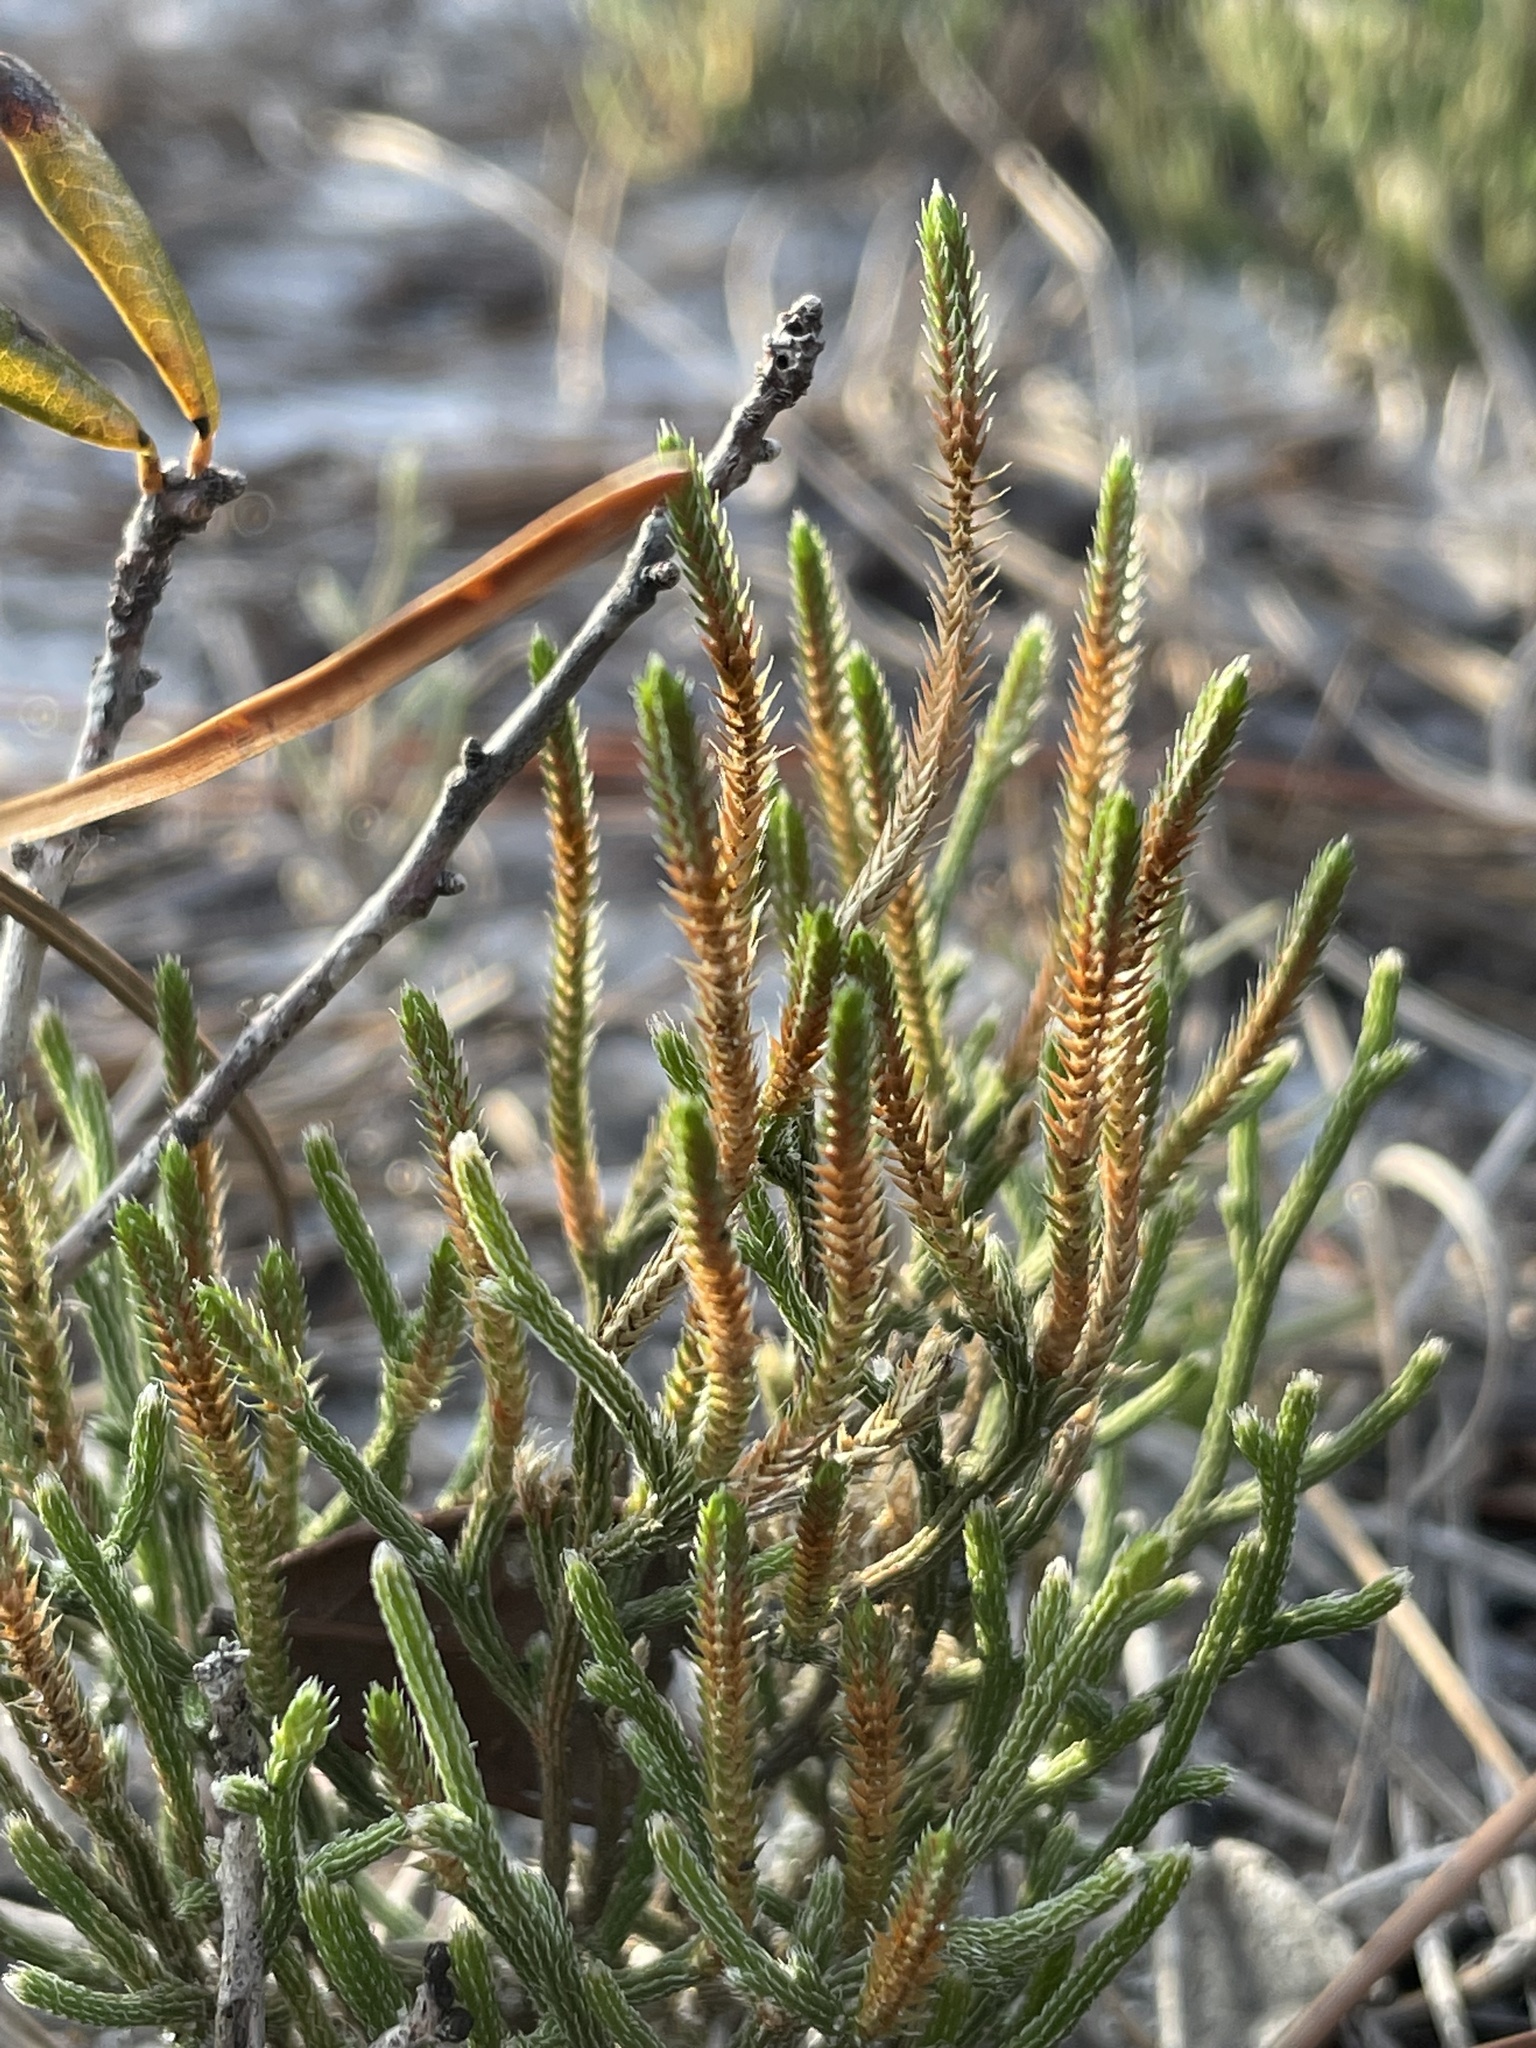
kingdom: Plantae
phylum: Tracheophyta
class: Lycopodiopsida
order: Selaginellales
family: Selaginellaceae
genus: Selaginella
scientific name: Selaginella arenicola
